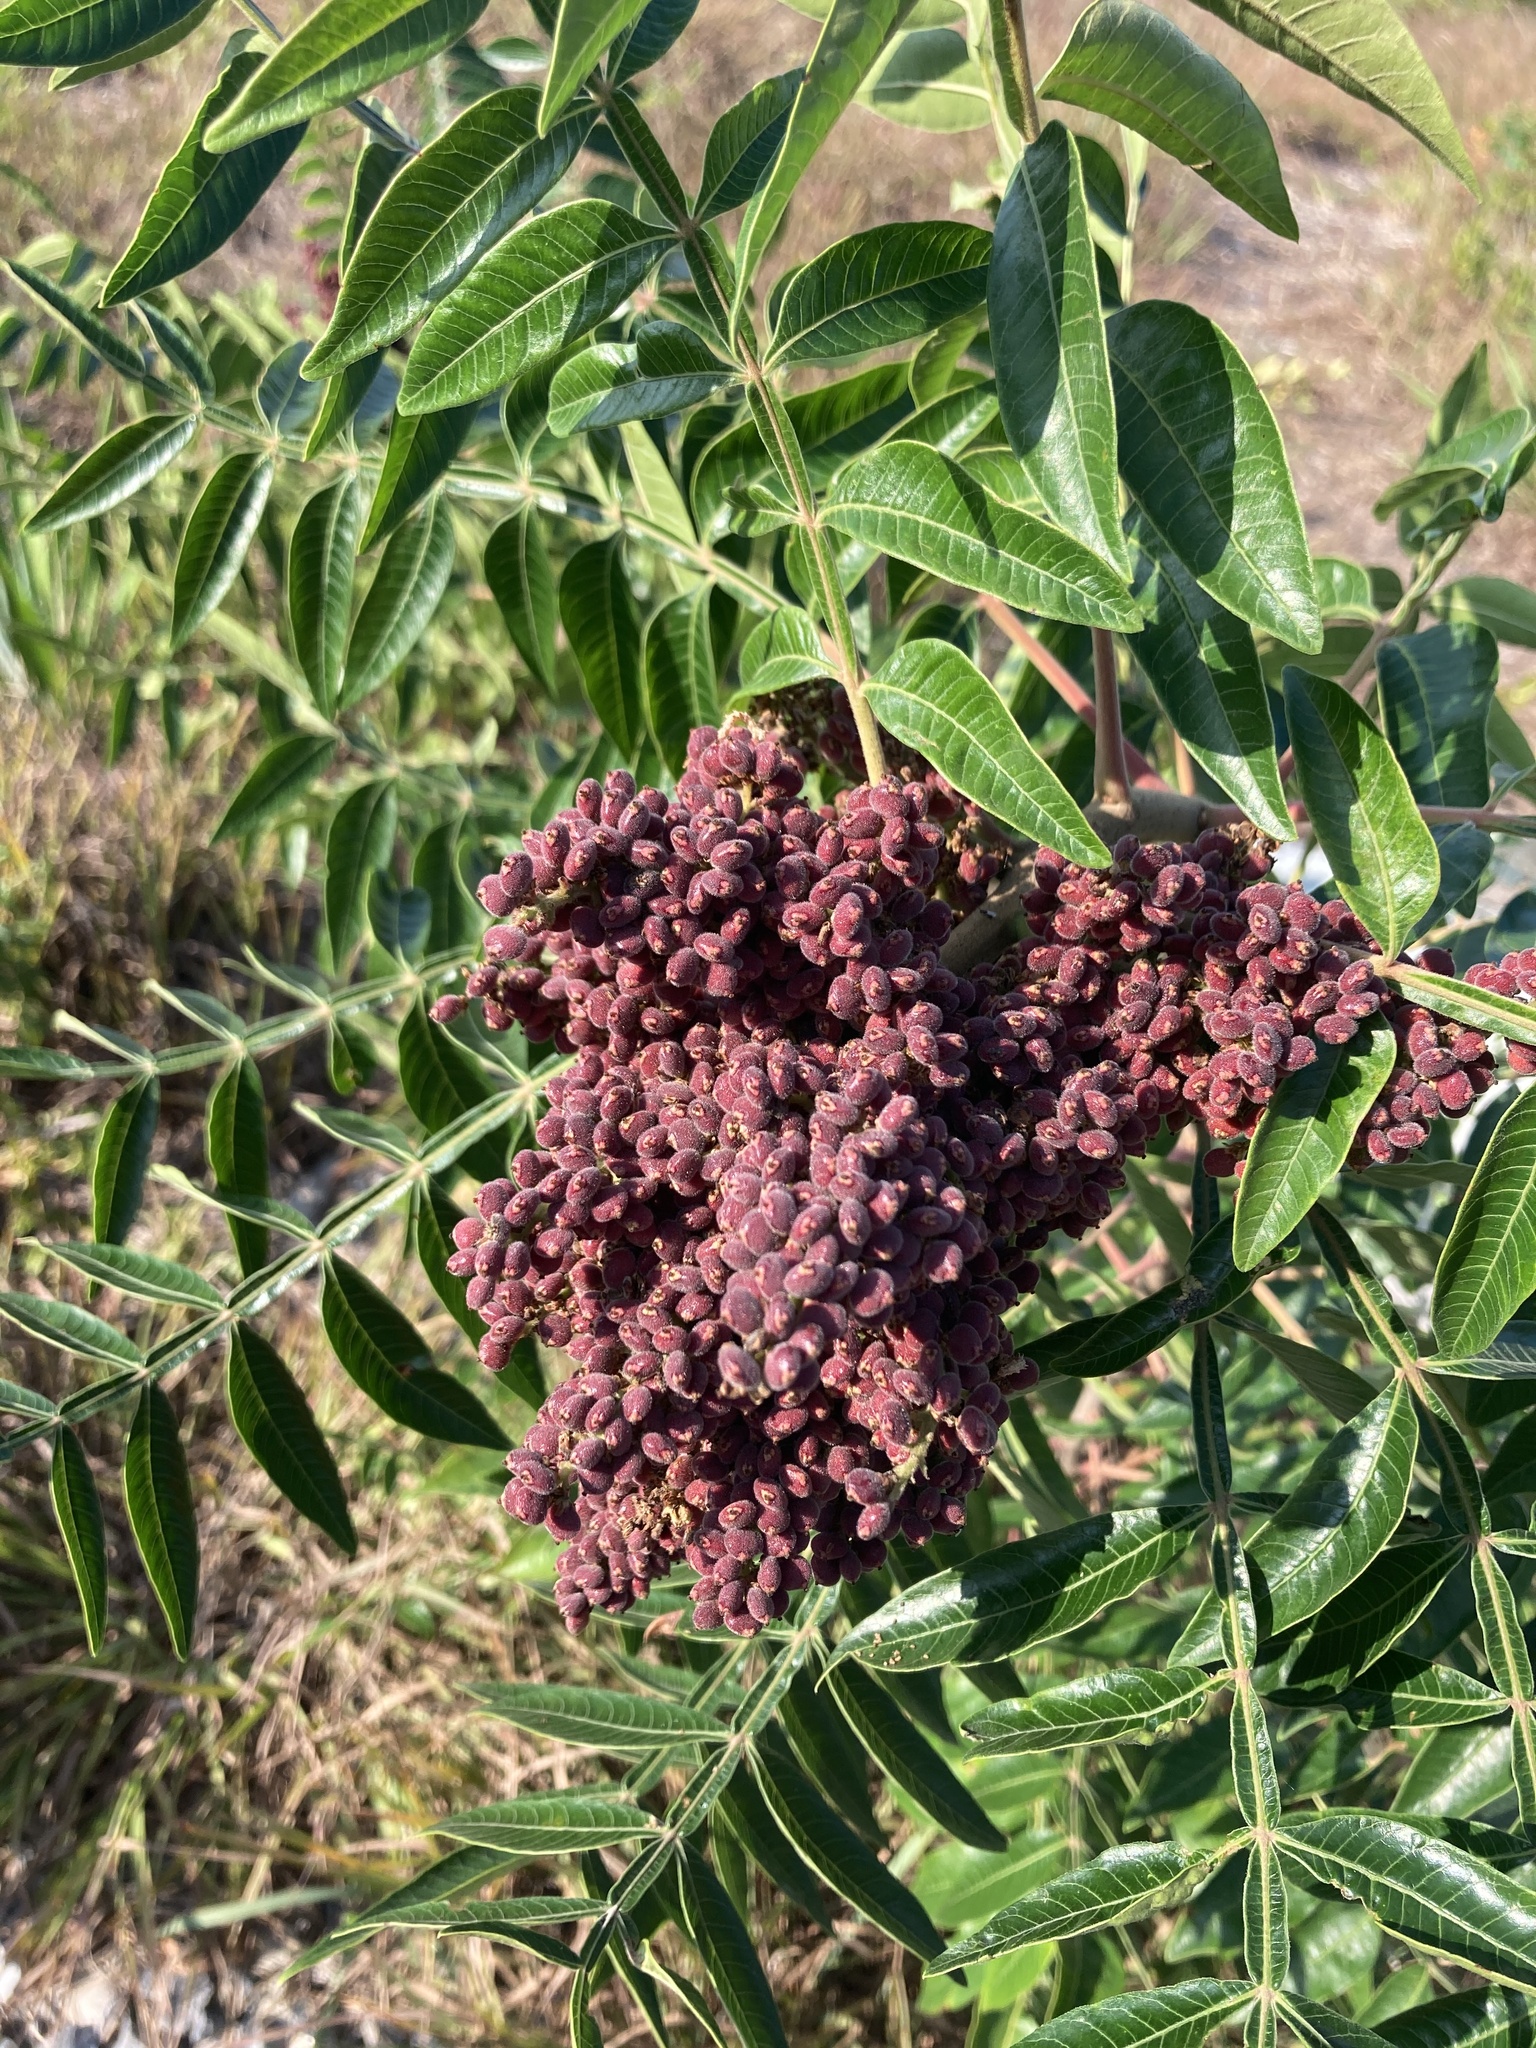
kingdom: Plantae
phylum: Tracheophyta
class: Magnoliopsida
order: Sapindales
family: Anacardiaceae
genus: Rhus
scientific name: Rhus copallina
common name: Shining sumac
